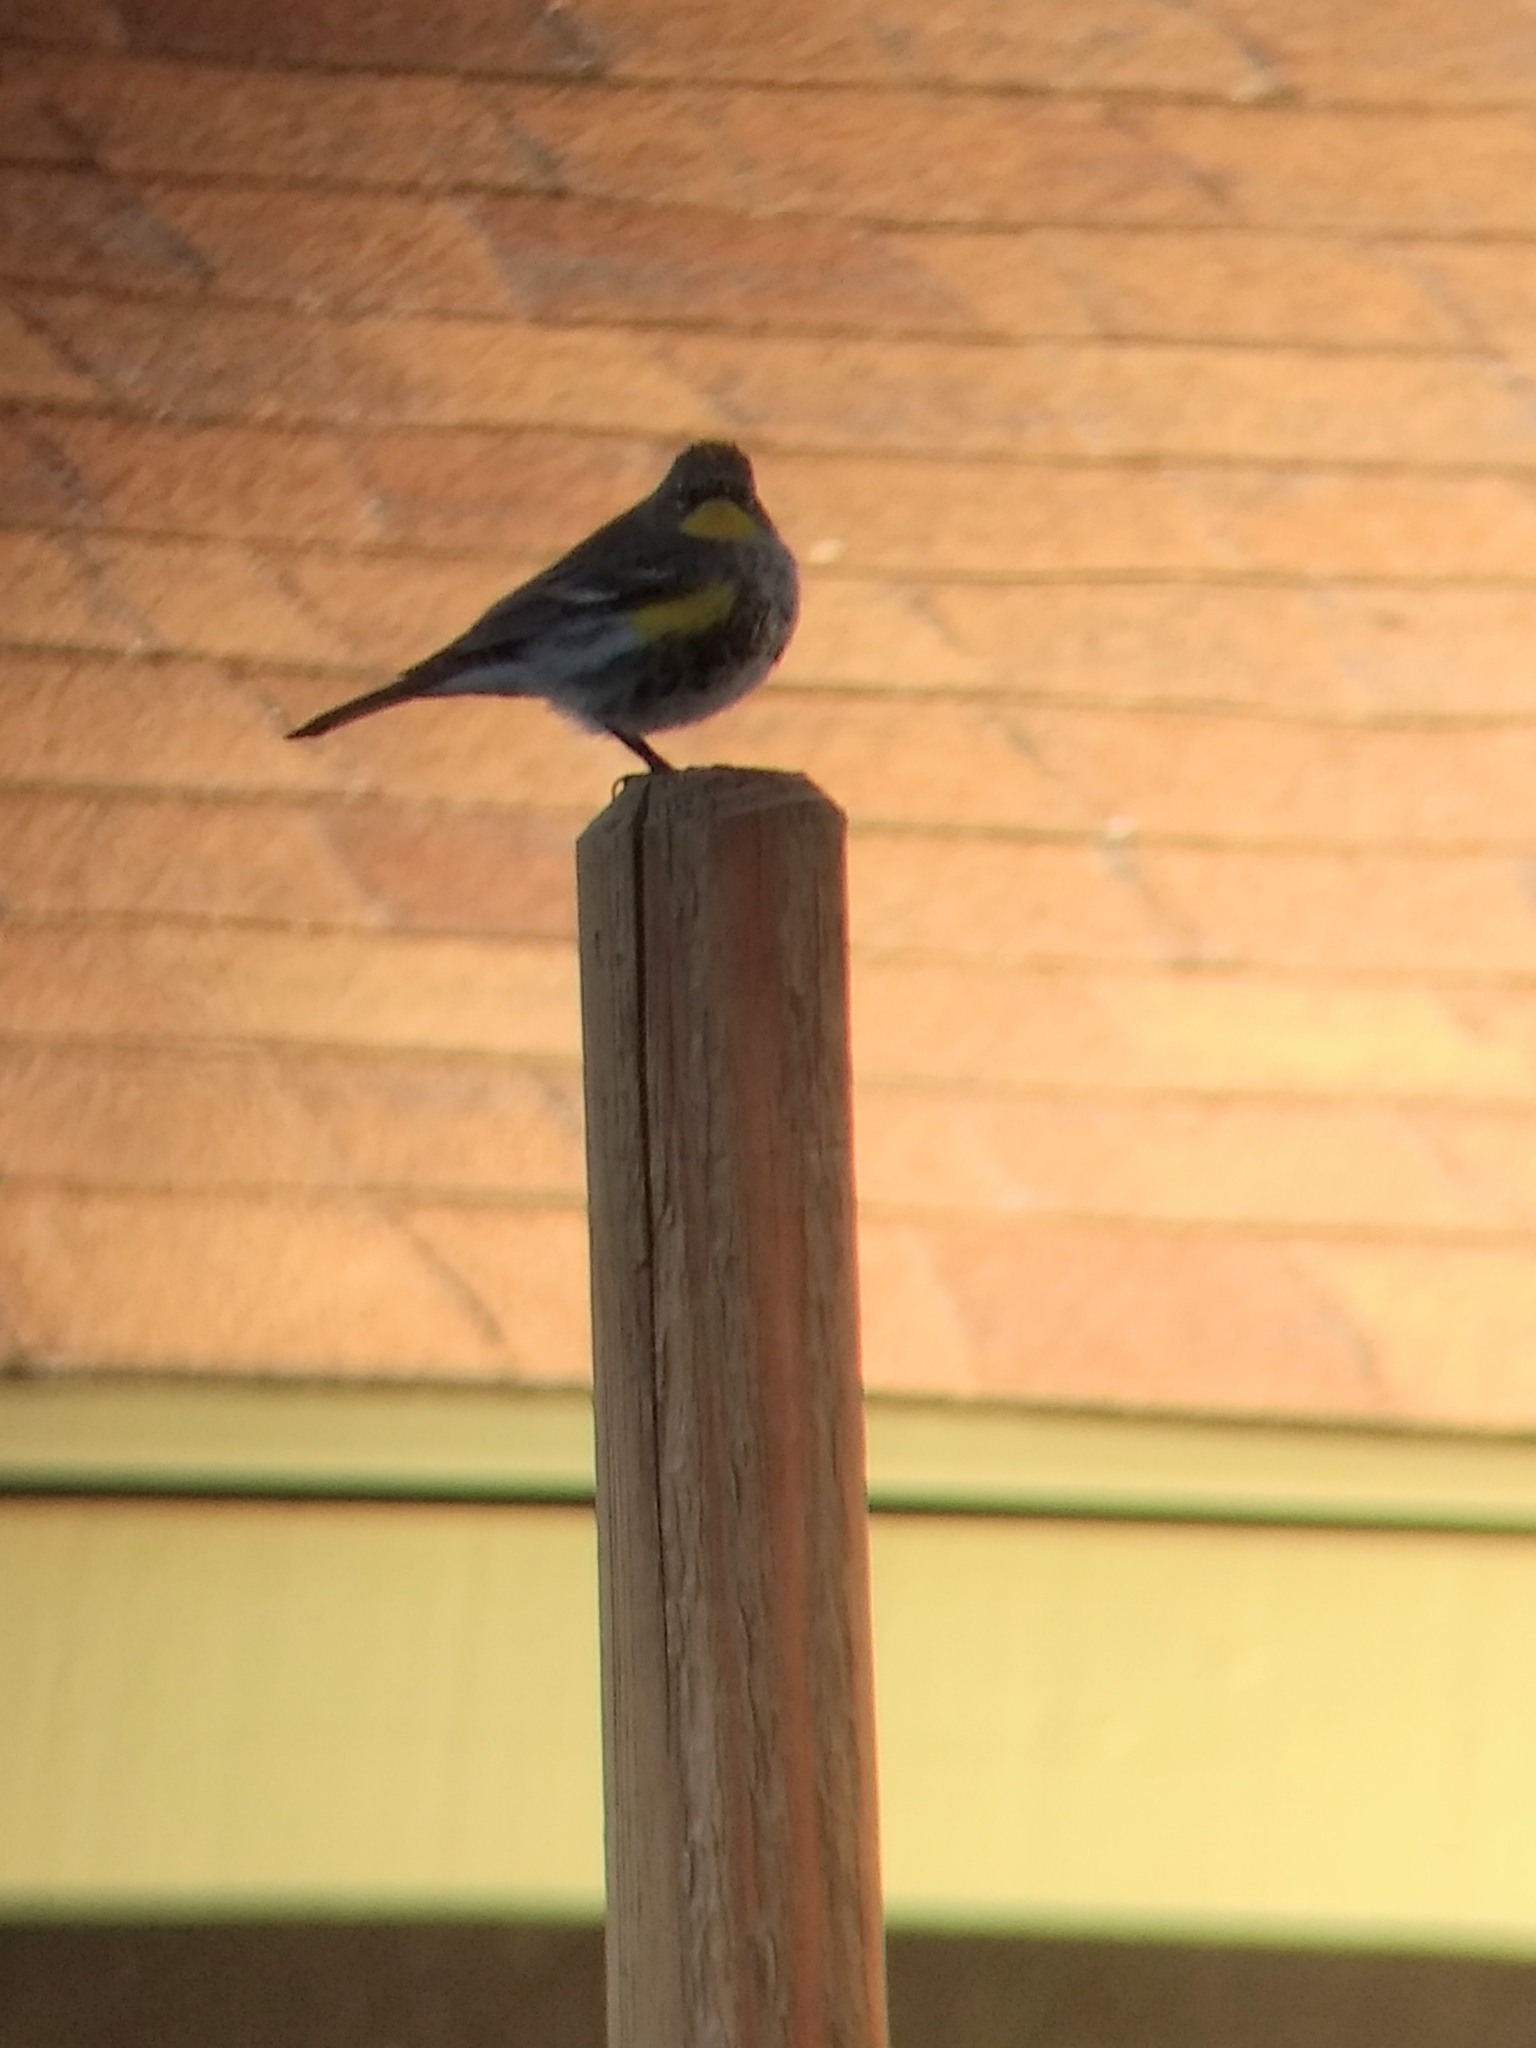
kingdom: Animalia
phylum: Chordata
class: Aves
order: Passeriformes
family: Parulidae
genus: Setophaga
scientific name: Setophaga coronata
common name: Myrtle warbler
